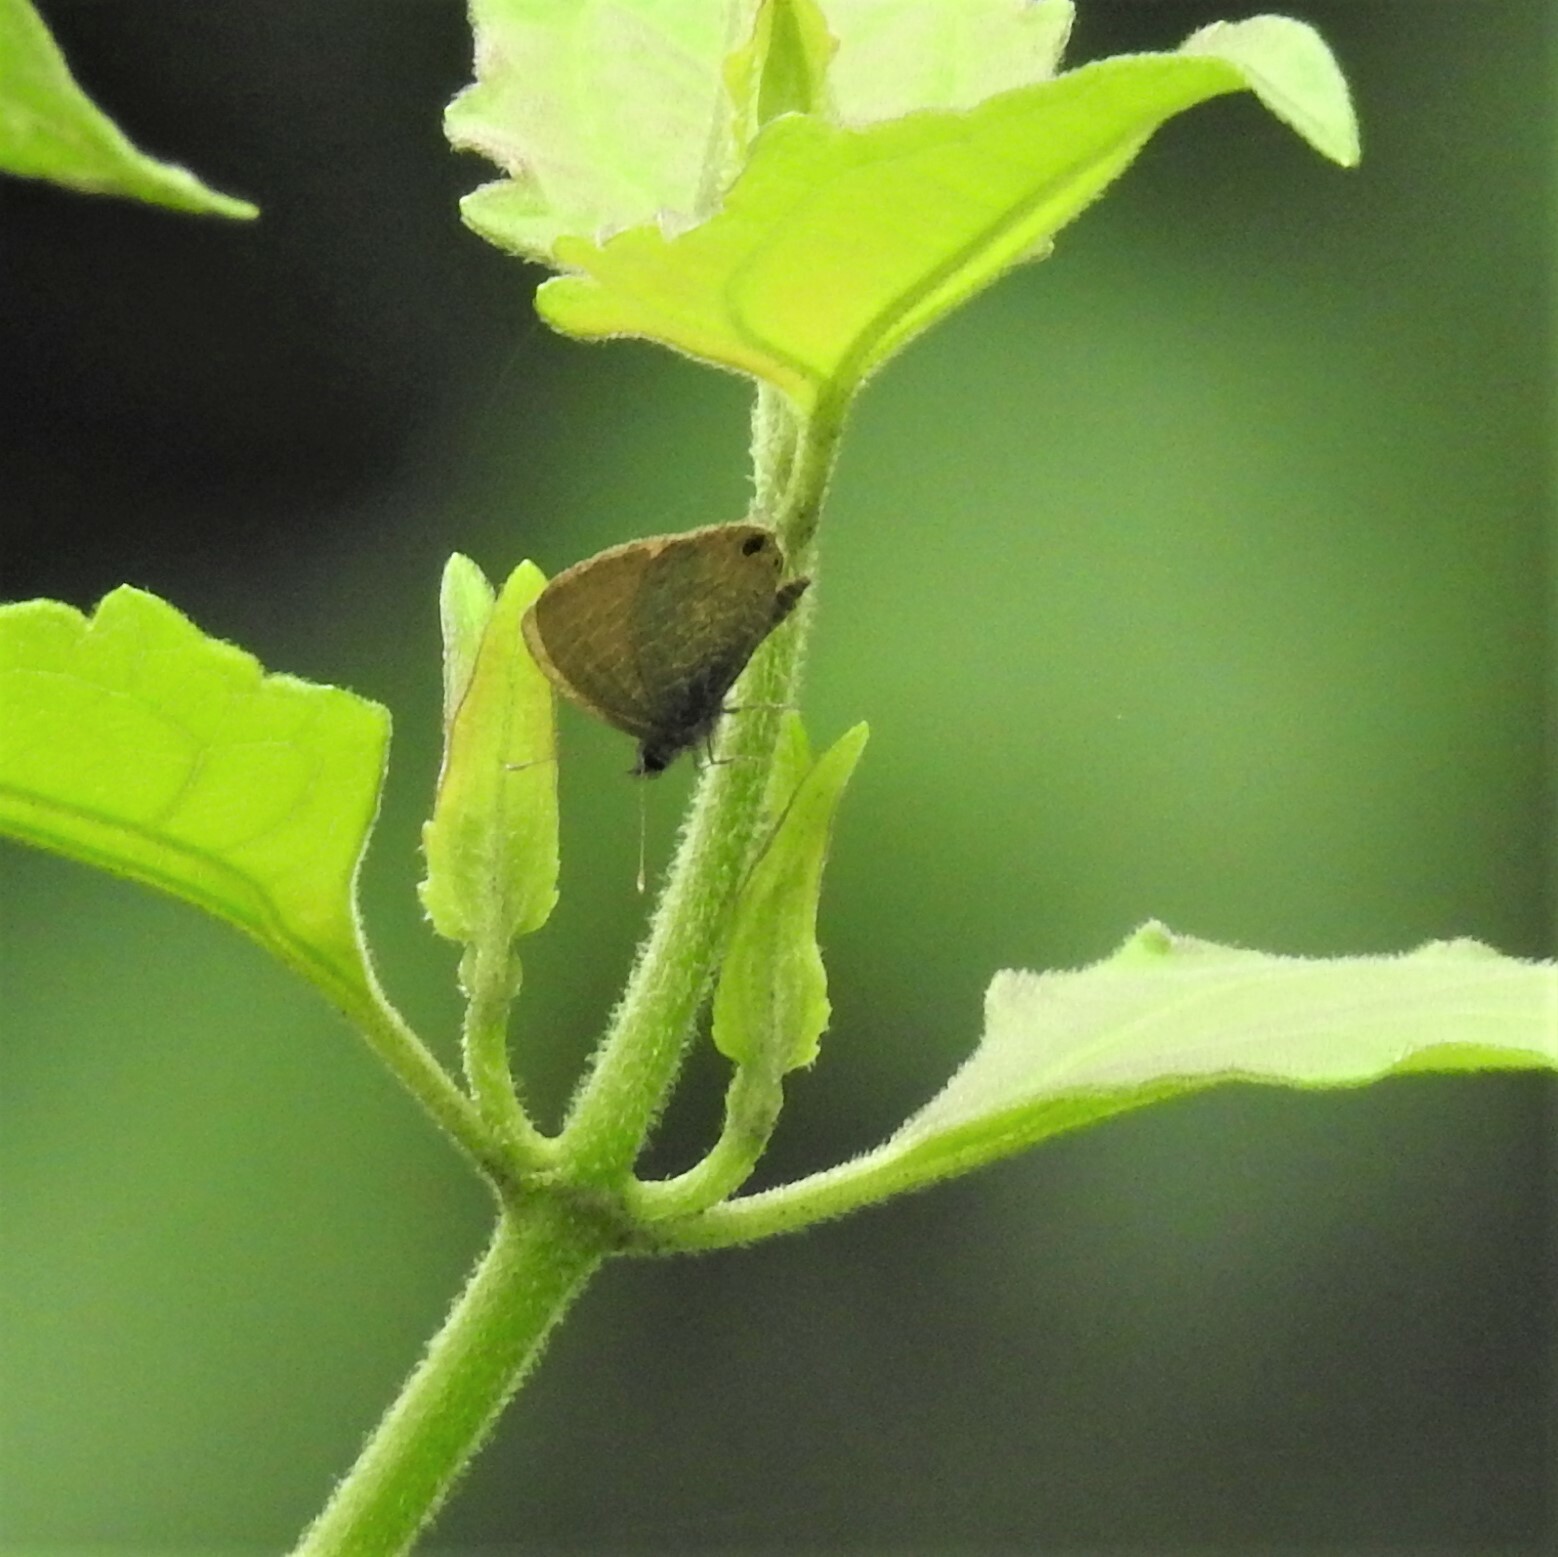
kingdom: Animalia
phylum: Arthropoda
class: Insecta
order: Lepidoptera
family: Lycaenidae
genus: Prosotas
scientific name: Prosotas nora
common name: Common line blue
